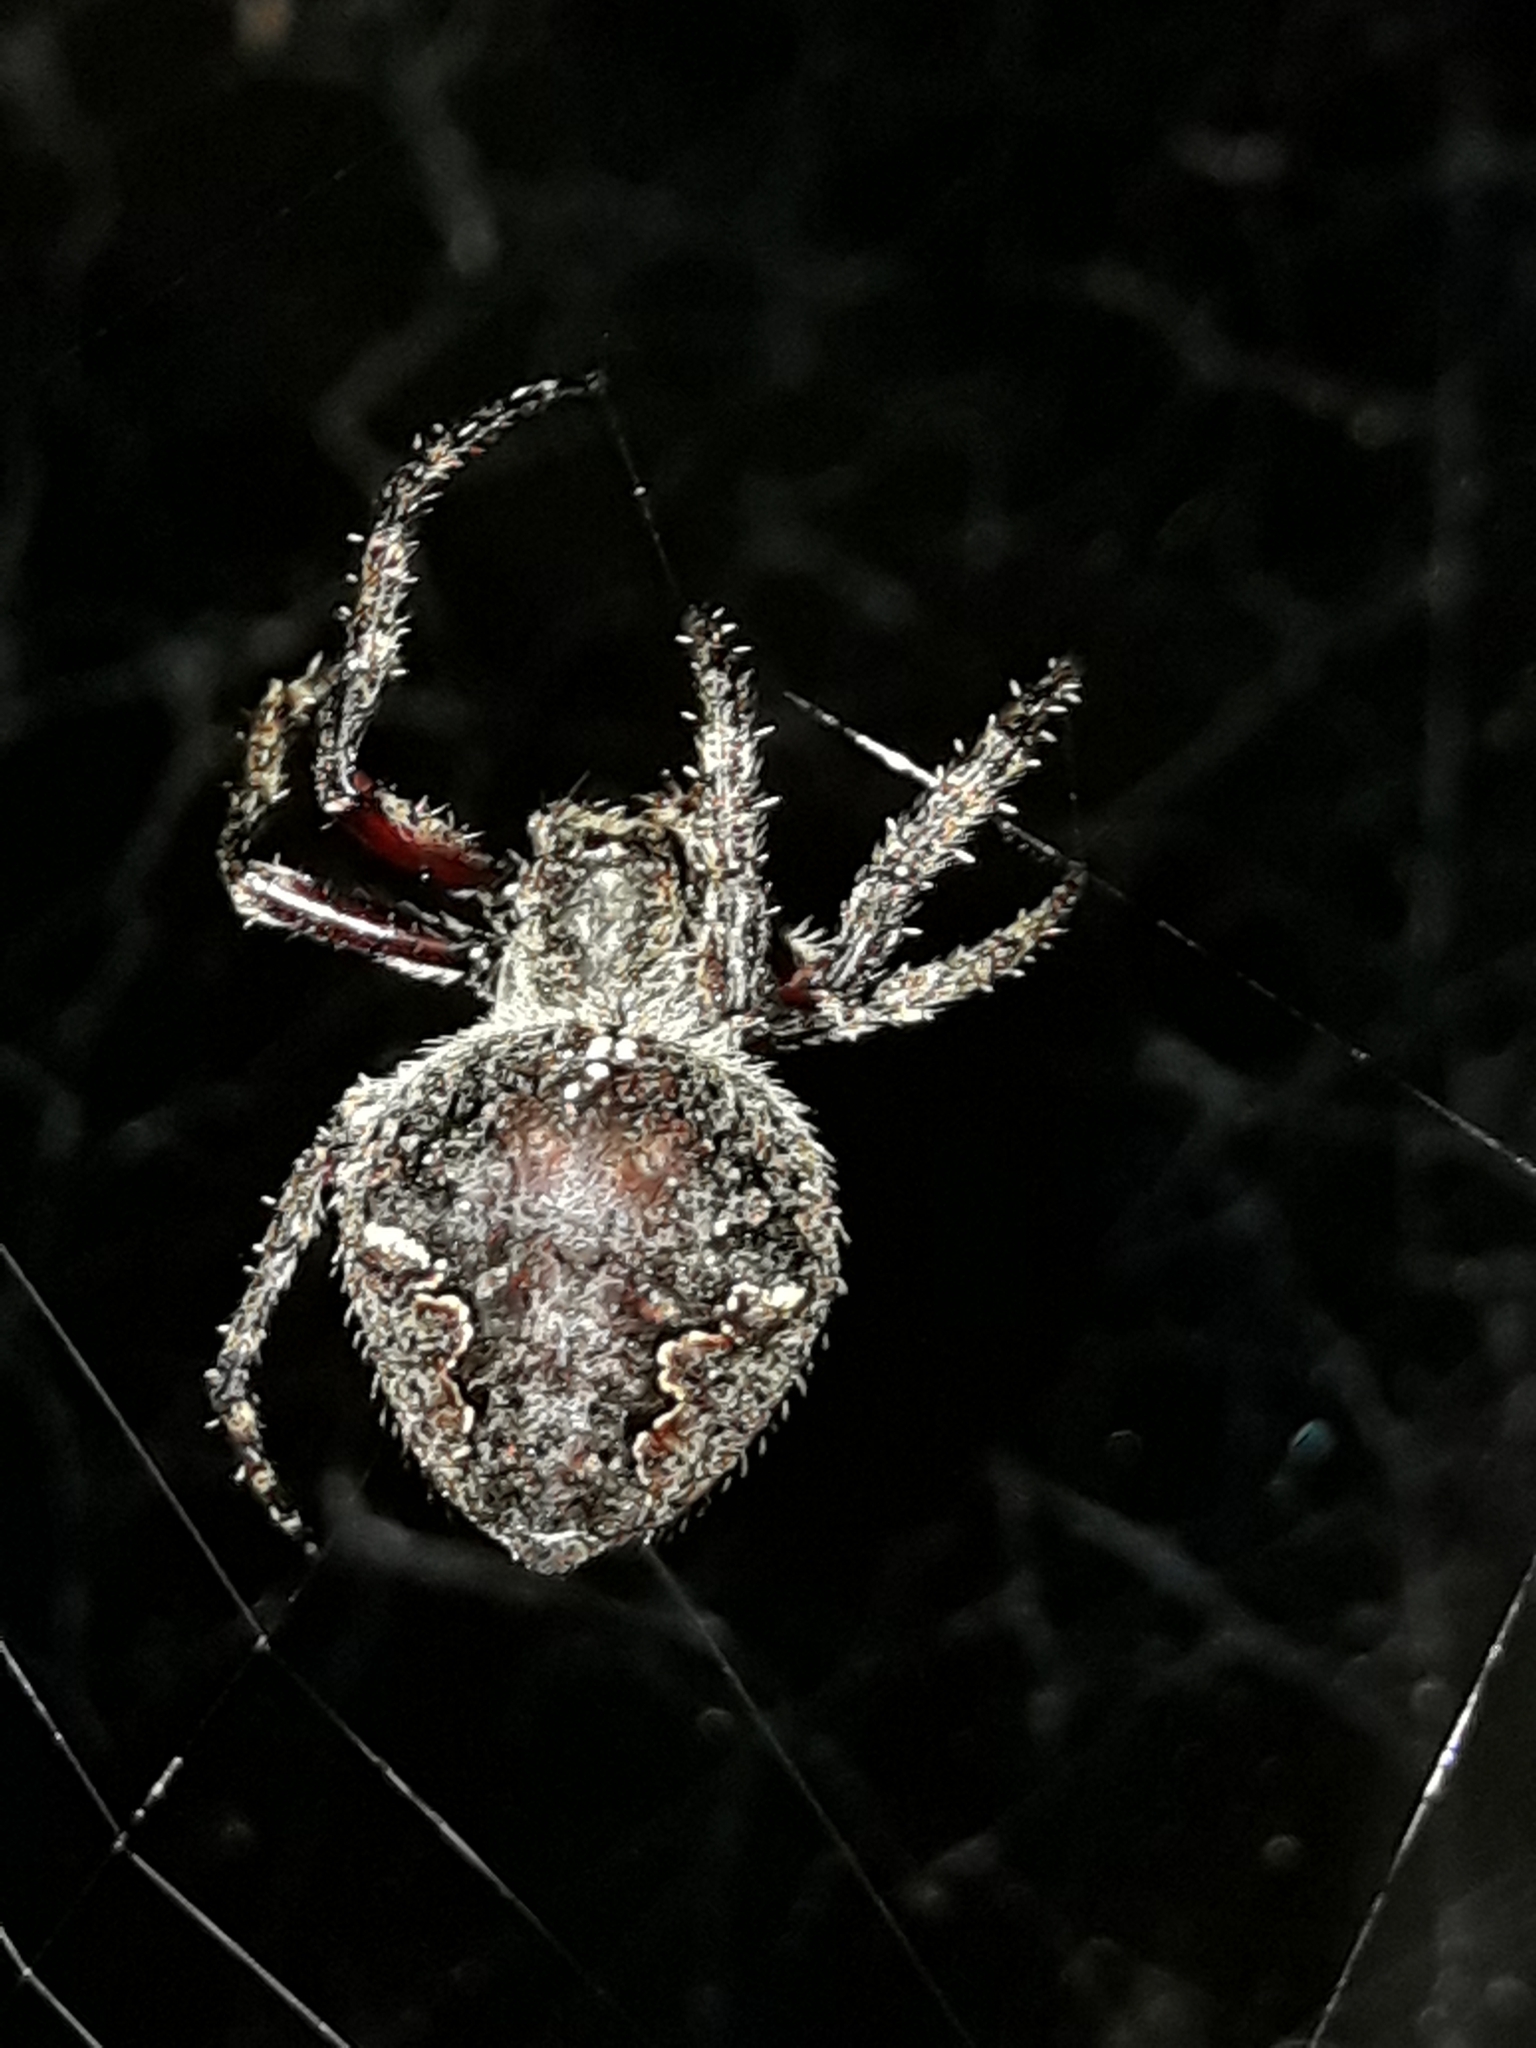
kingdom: Animalia
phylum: Arthropoda
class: Arachnida
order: Araneae
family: Araneidae
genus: Eriophora
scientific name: Eriophora pustulosa
